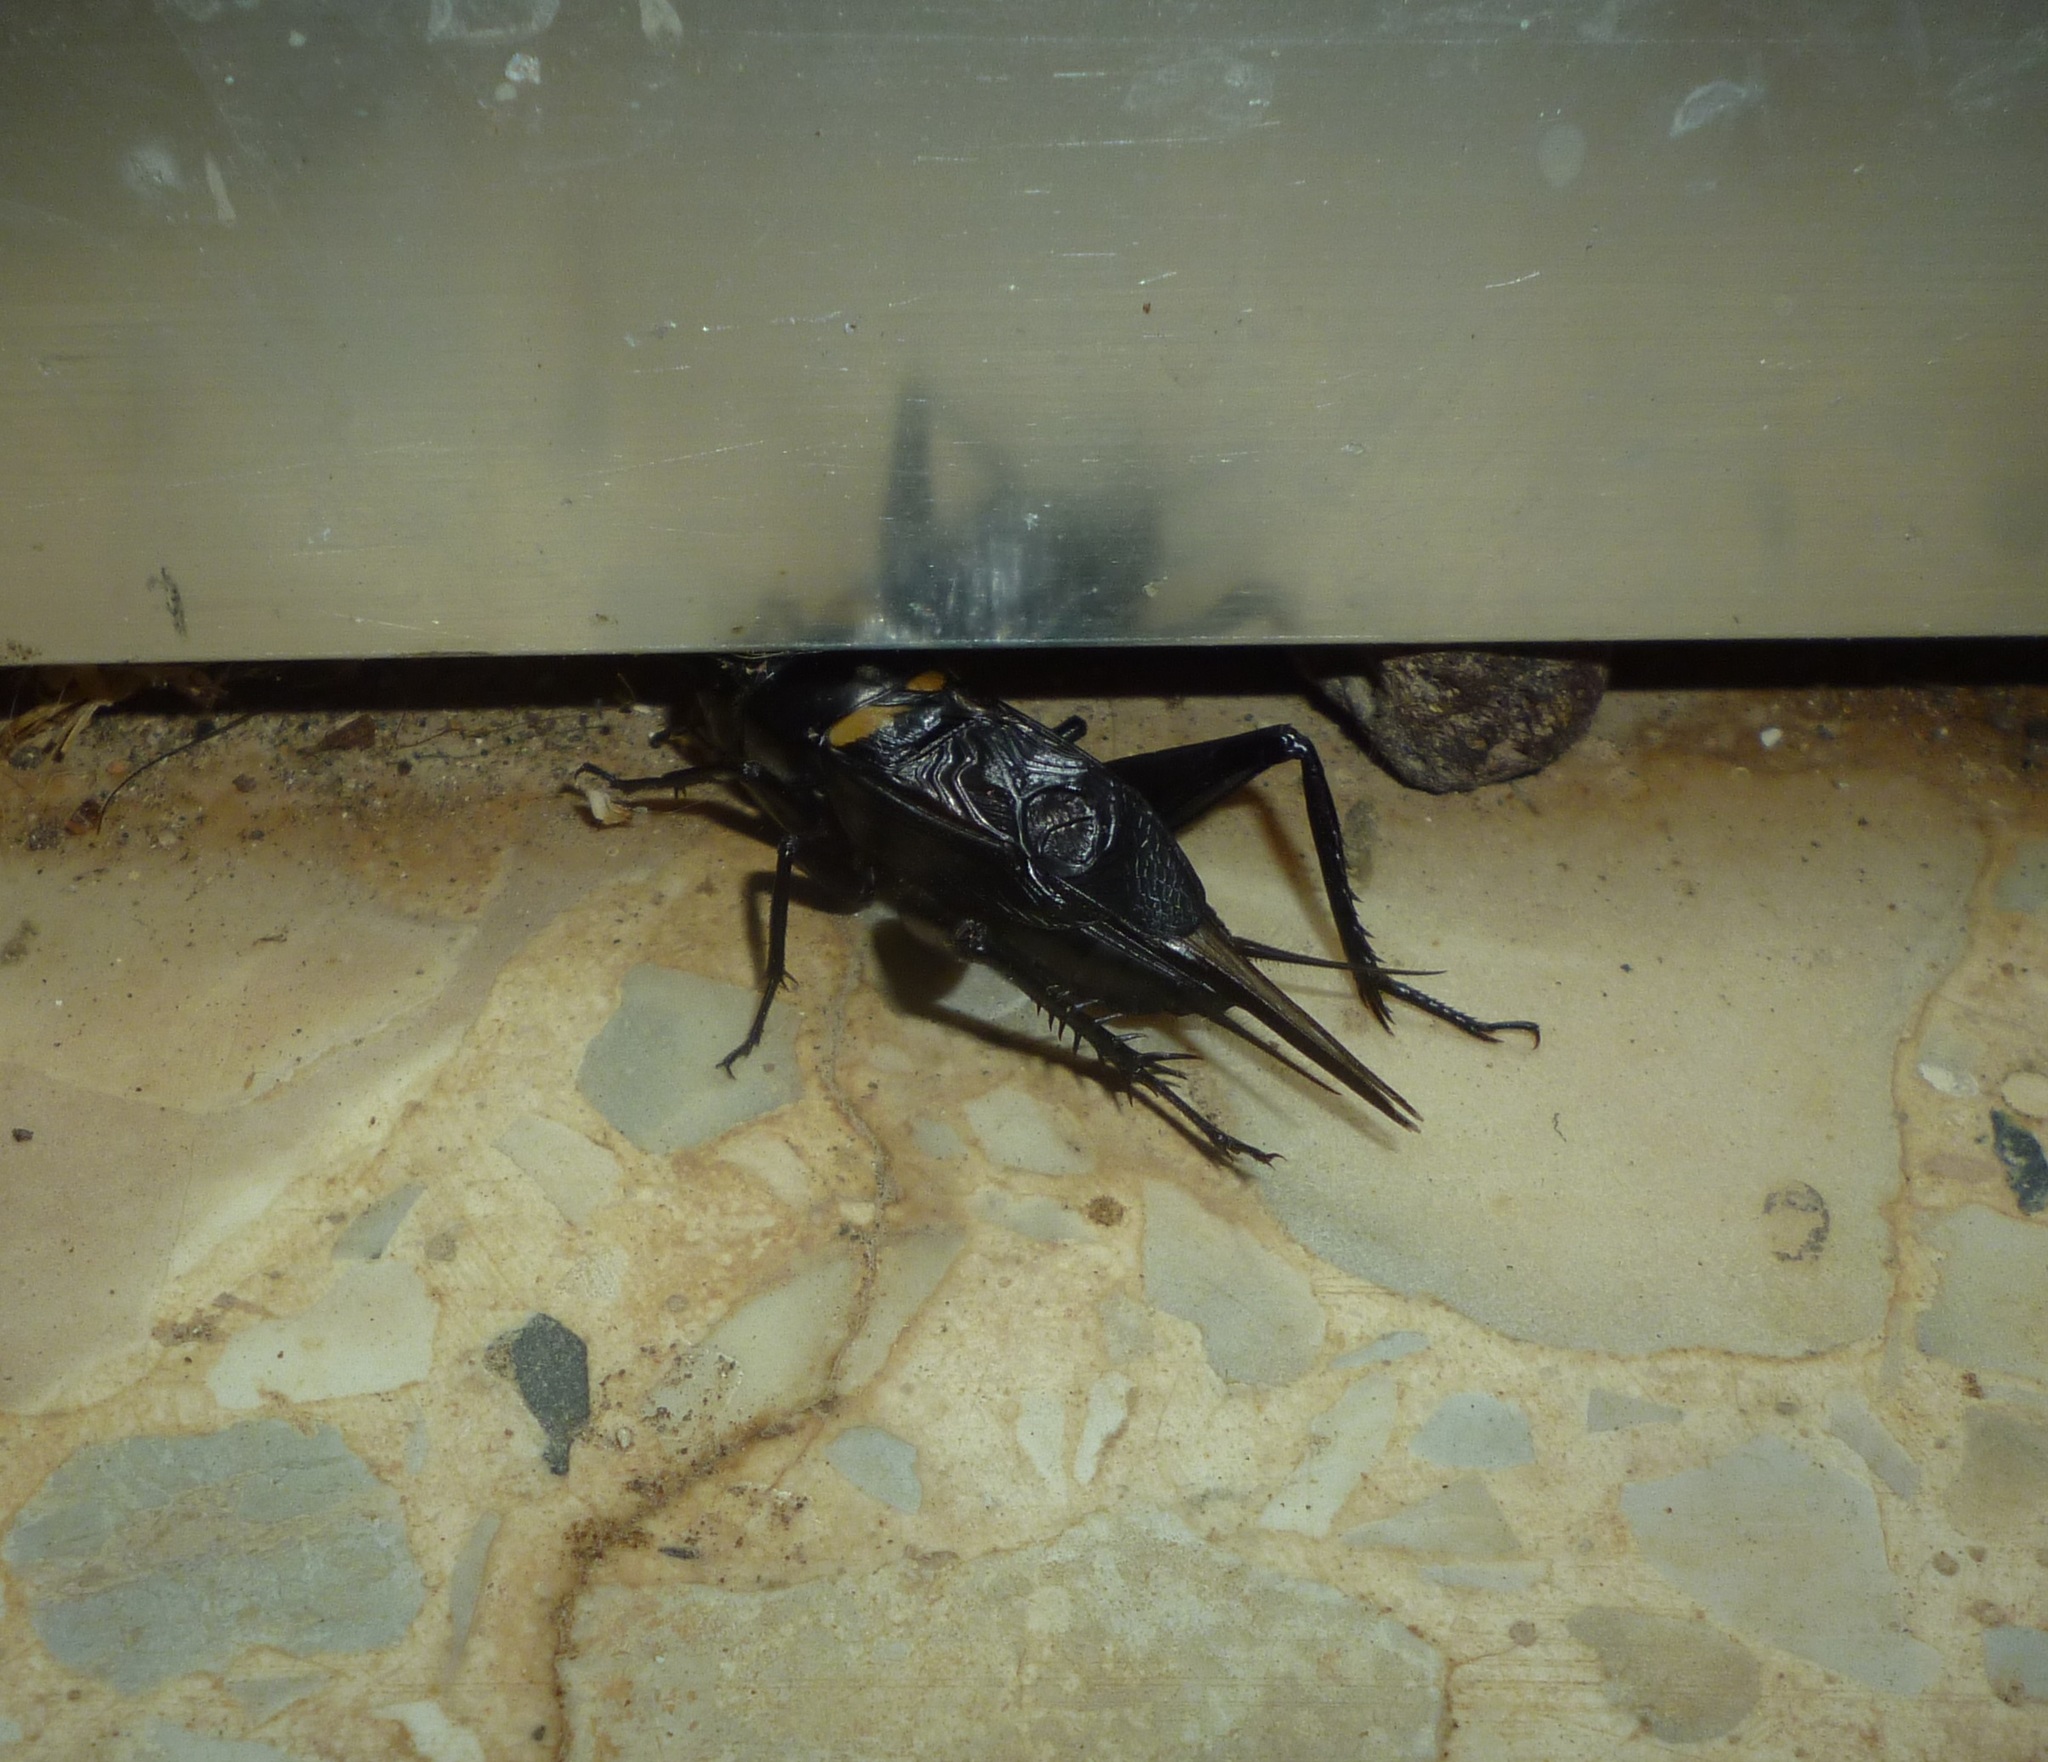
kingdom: Animalia
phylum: Arthropoda
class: Insecta
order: Orthoptera
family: Gryllidae
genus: Gryllus
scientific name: Gryllus bimaculatus
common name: Two-spotted cricket
